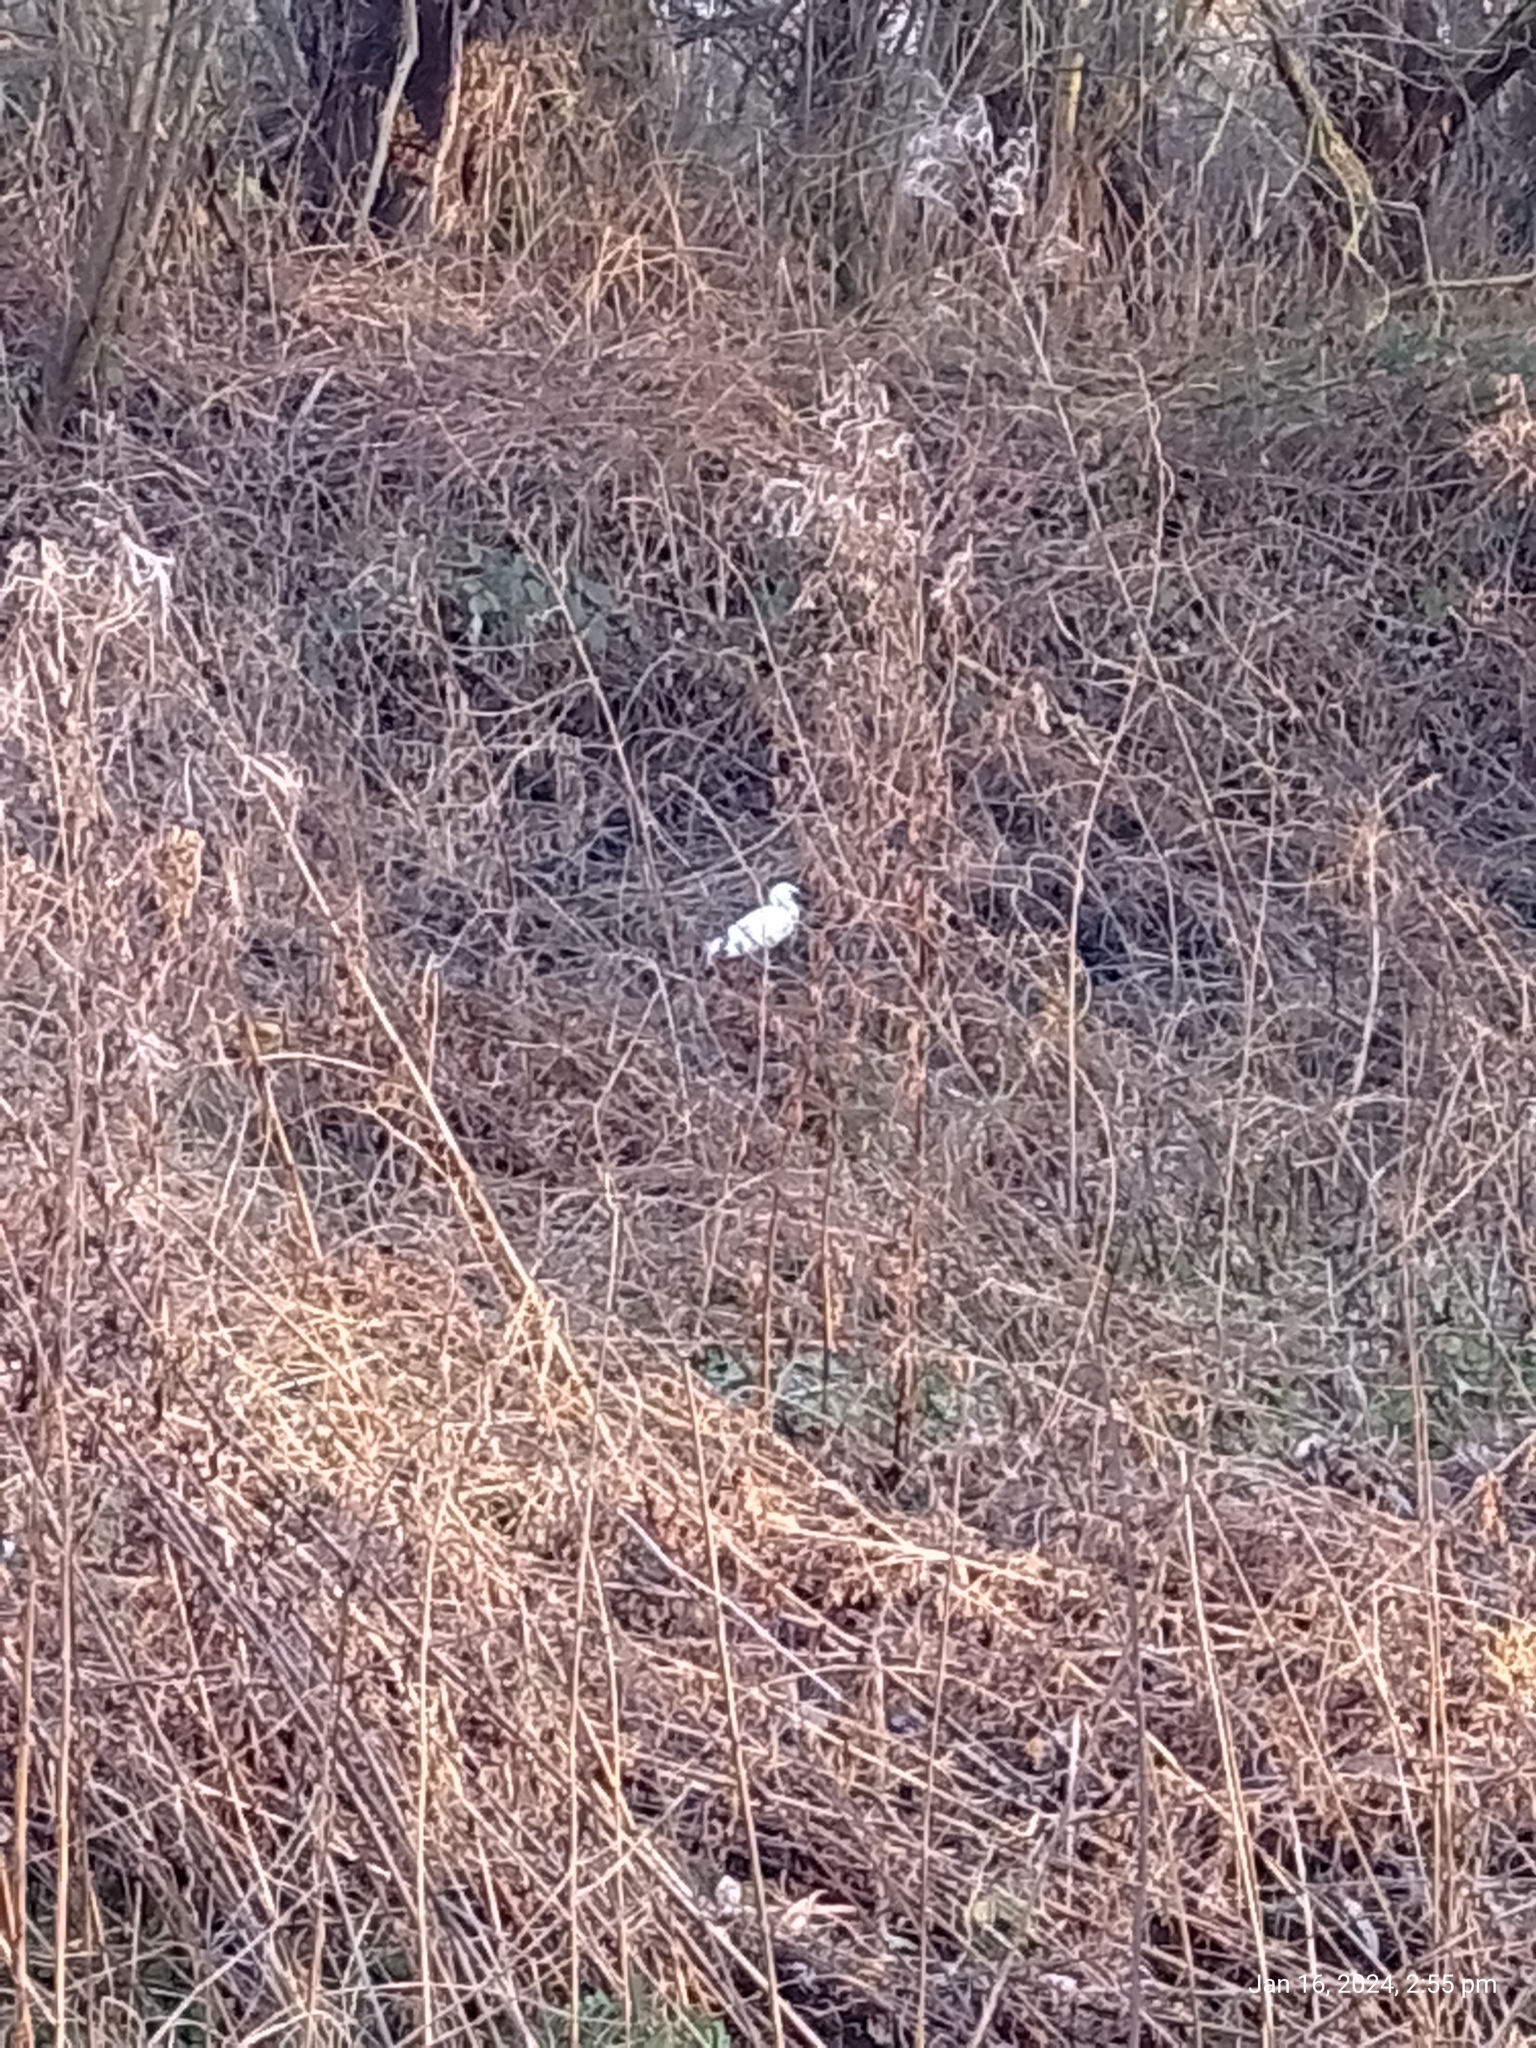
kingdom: Animalia
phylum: Chordata
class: Aves
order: Pelecaniformes
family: Ardeidae
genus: Egretta
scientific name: Egretta garzetta
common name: Little egret
